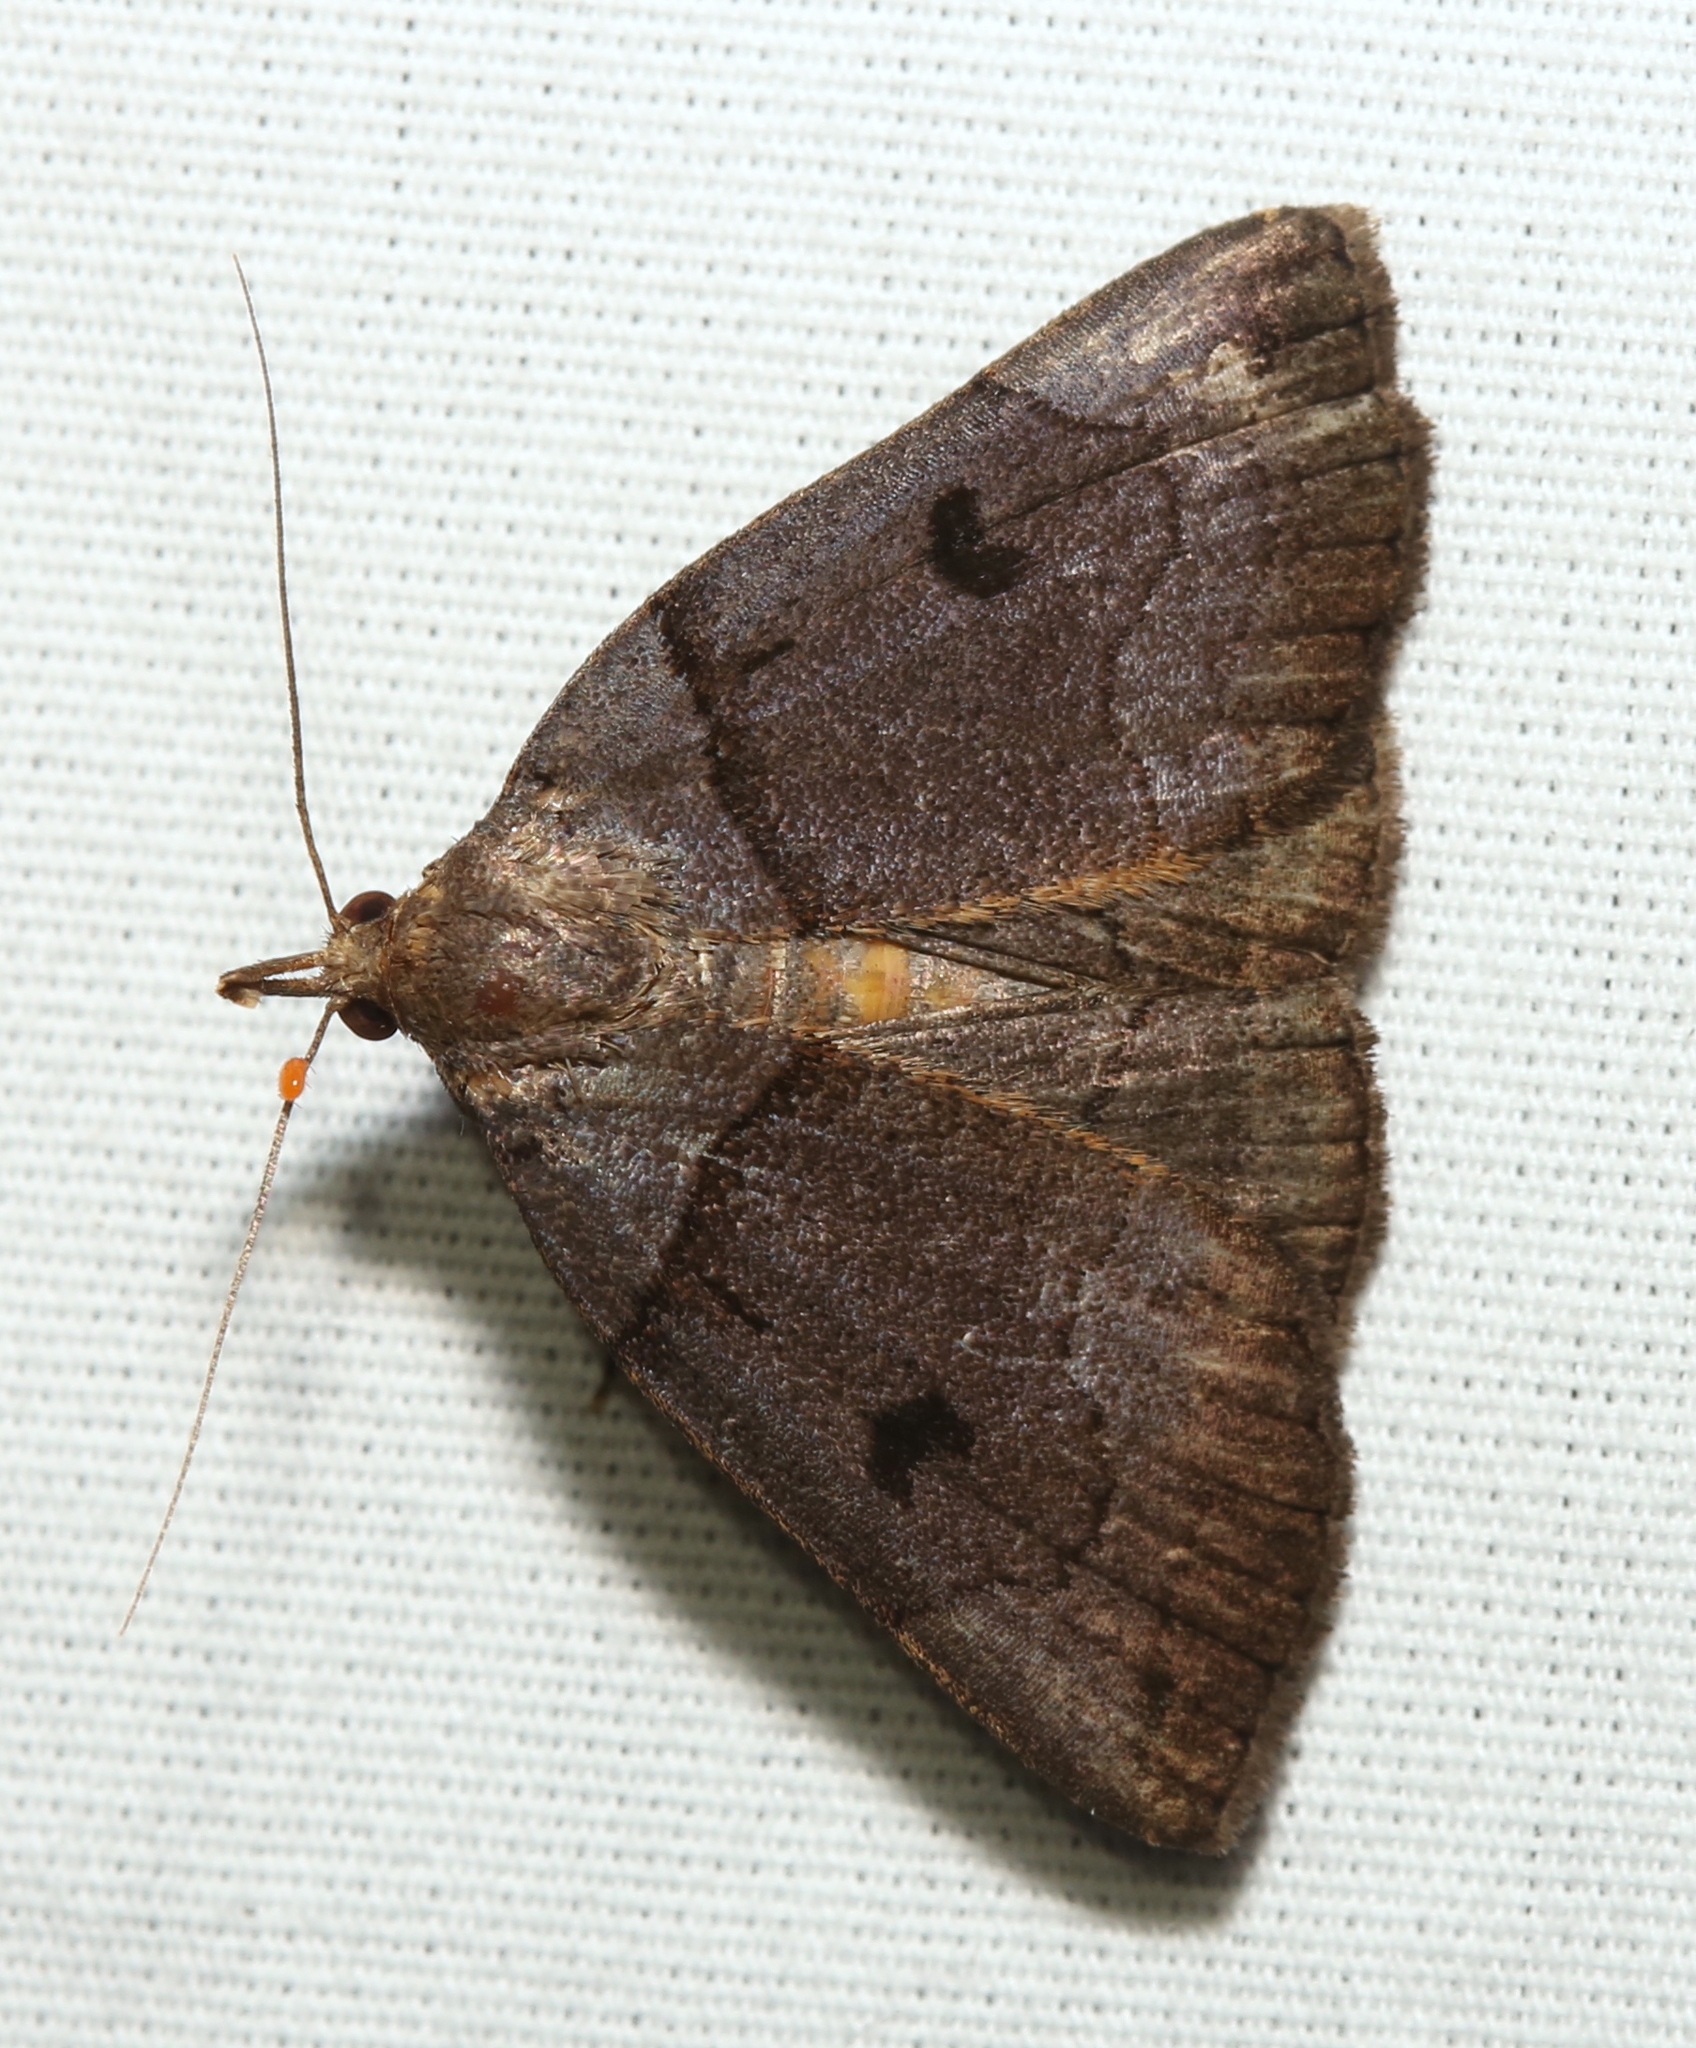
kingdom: Animalia
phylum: Arthropoda
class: Insecta
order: Lepidoptera
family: Erebidae
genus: Zanclognatha
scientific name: Zanclognatha laevigata
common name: Variable fan-foot
